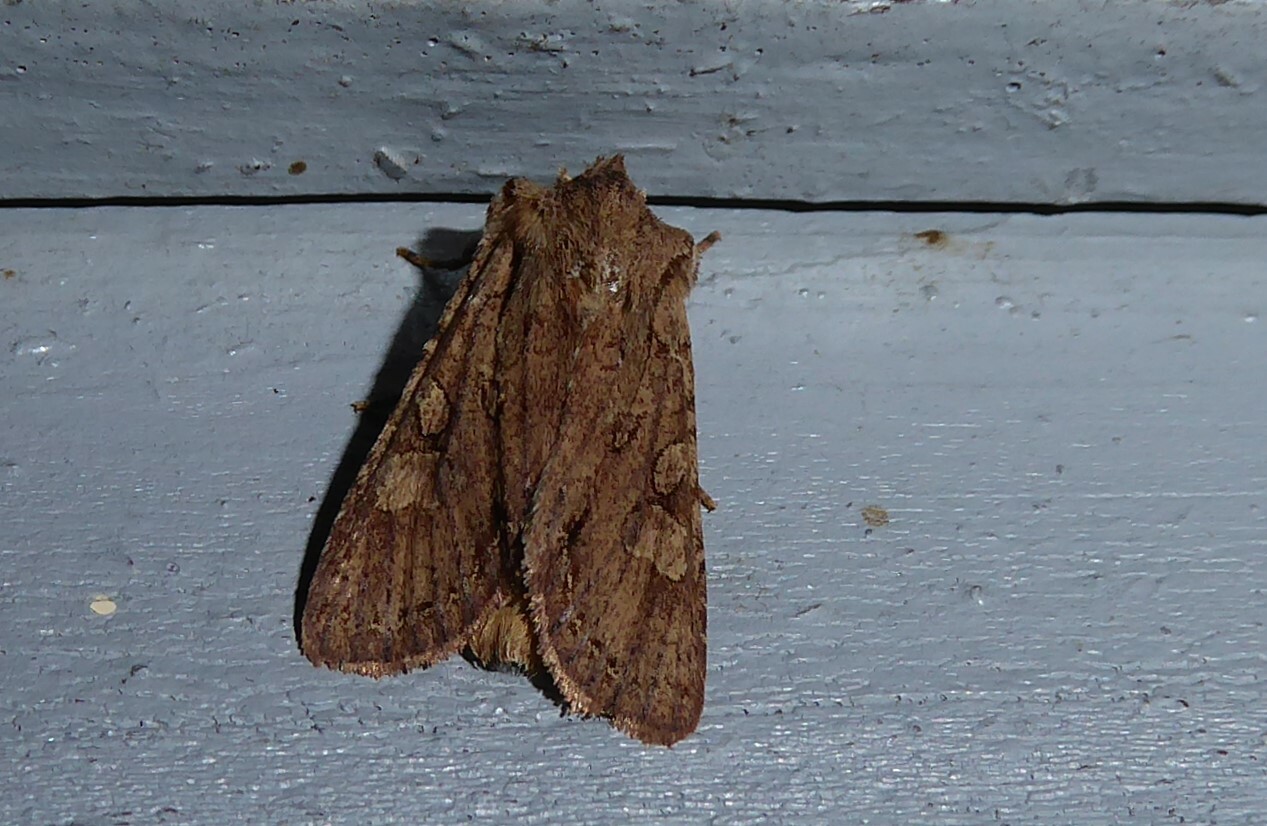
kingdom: Animalia
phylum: Arthropoda
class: Insecta
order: Lepidoptera
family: Noctuidae
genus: Ichneutica
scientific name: Ichneutica
